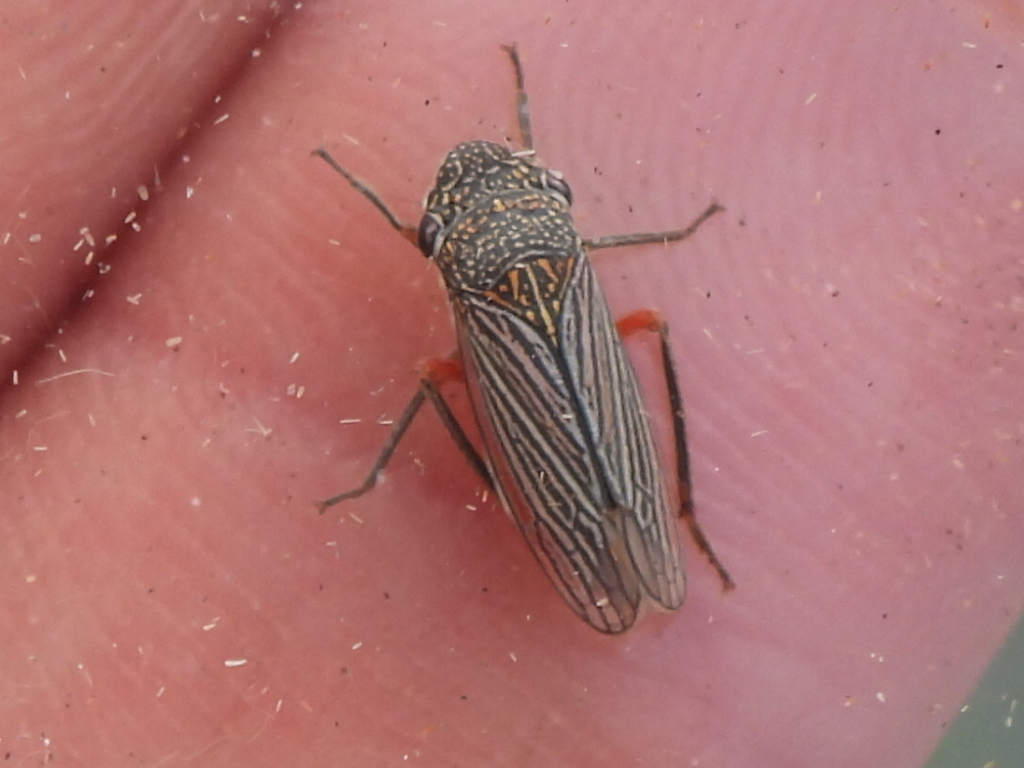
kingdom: Animalia
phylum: Arthropoda
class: Insecta
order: Hemiptera
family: Cicadellidae
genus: Cuerna
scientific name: Cuerna costalis
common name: Lateral-lined sharpshooter
